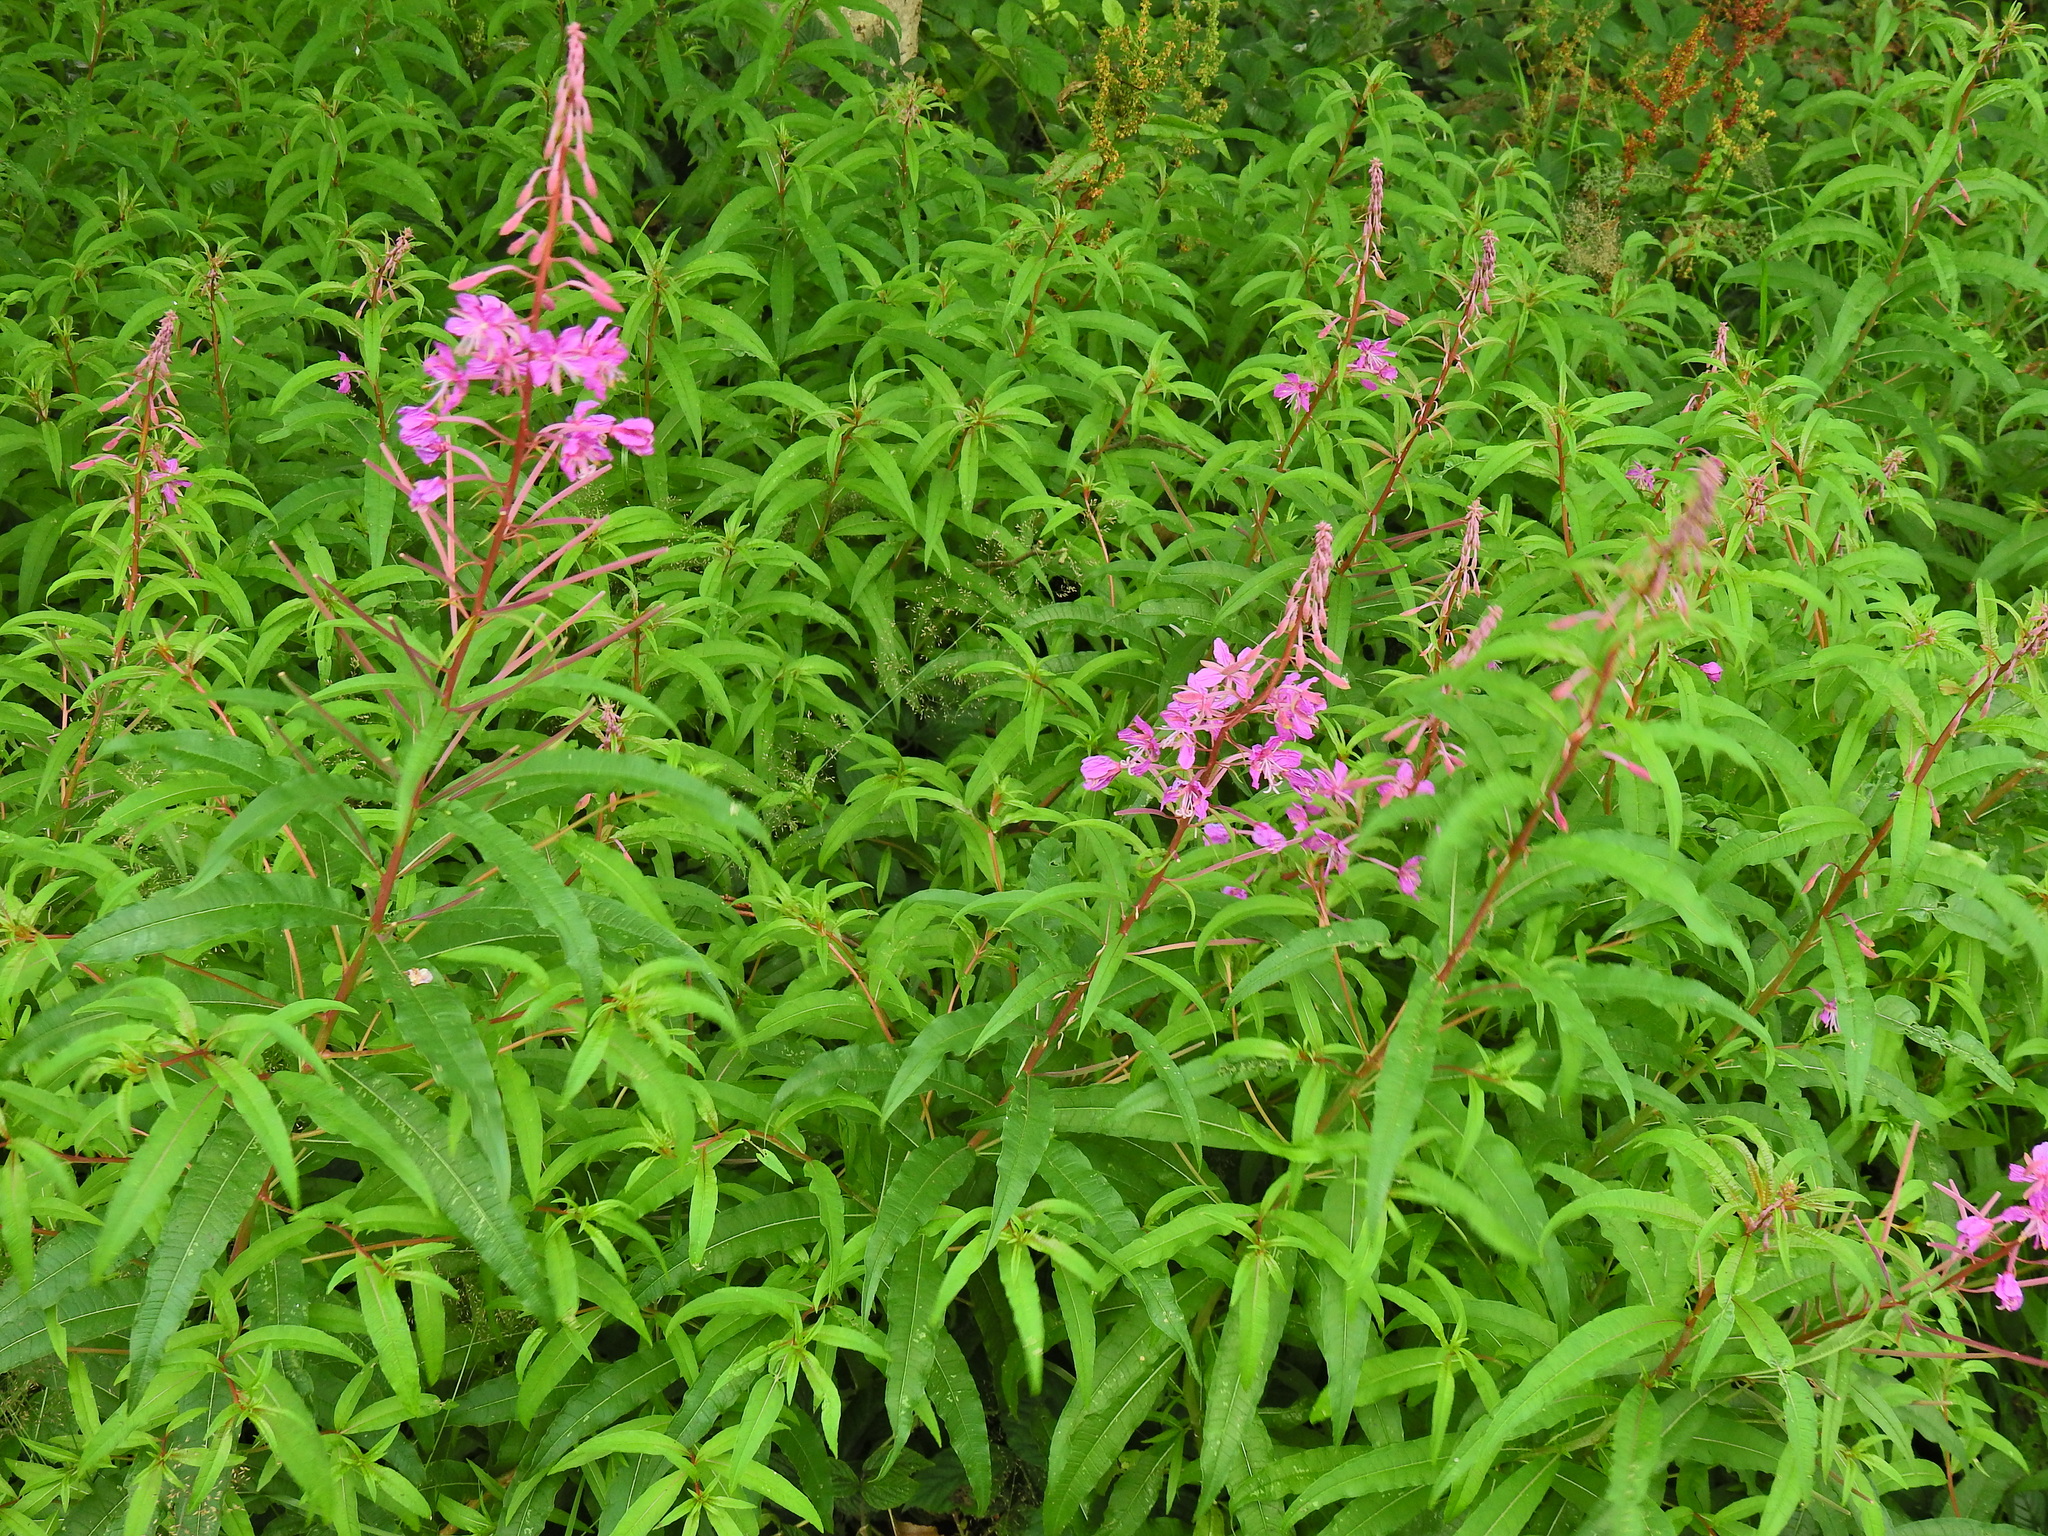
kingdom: Plantae
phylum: Tracheophyta
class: Magnoliopsida
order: Myrtales
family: Onagraceae
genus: Chamaenerion
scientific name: Chamaenerion angustifolium
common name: Fireweed
